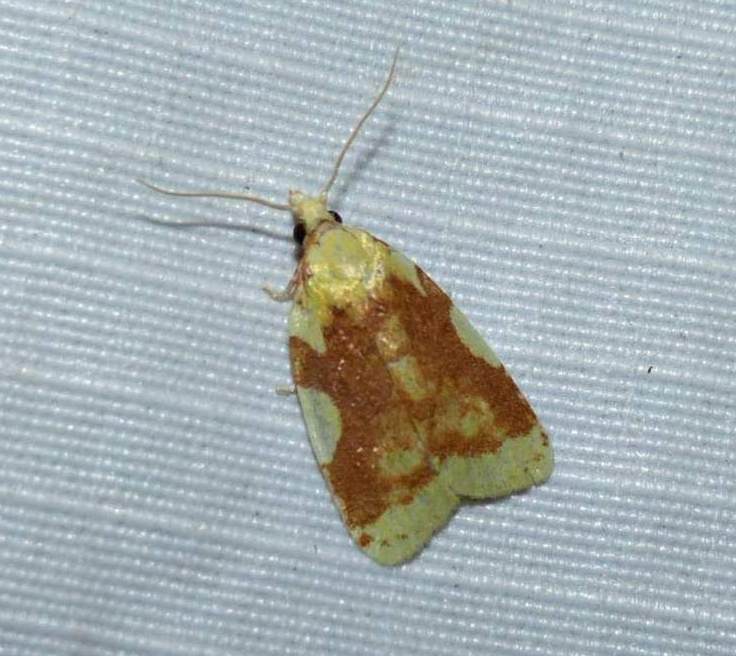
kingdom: Animalia
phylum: Arthropoda
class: Insecta
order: Lepidoptera
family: Tortricidae
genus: Cenopis
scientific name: Cenopis niveana
